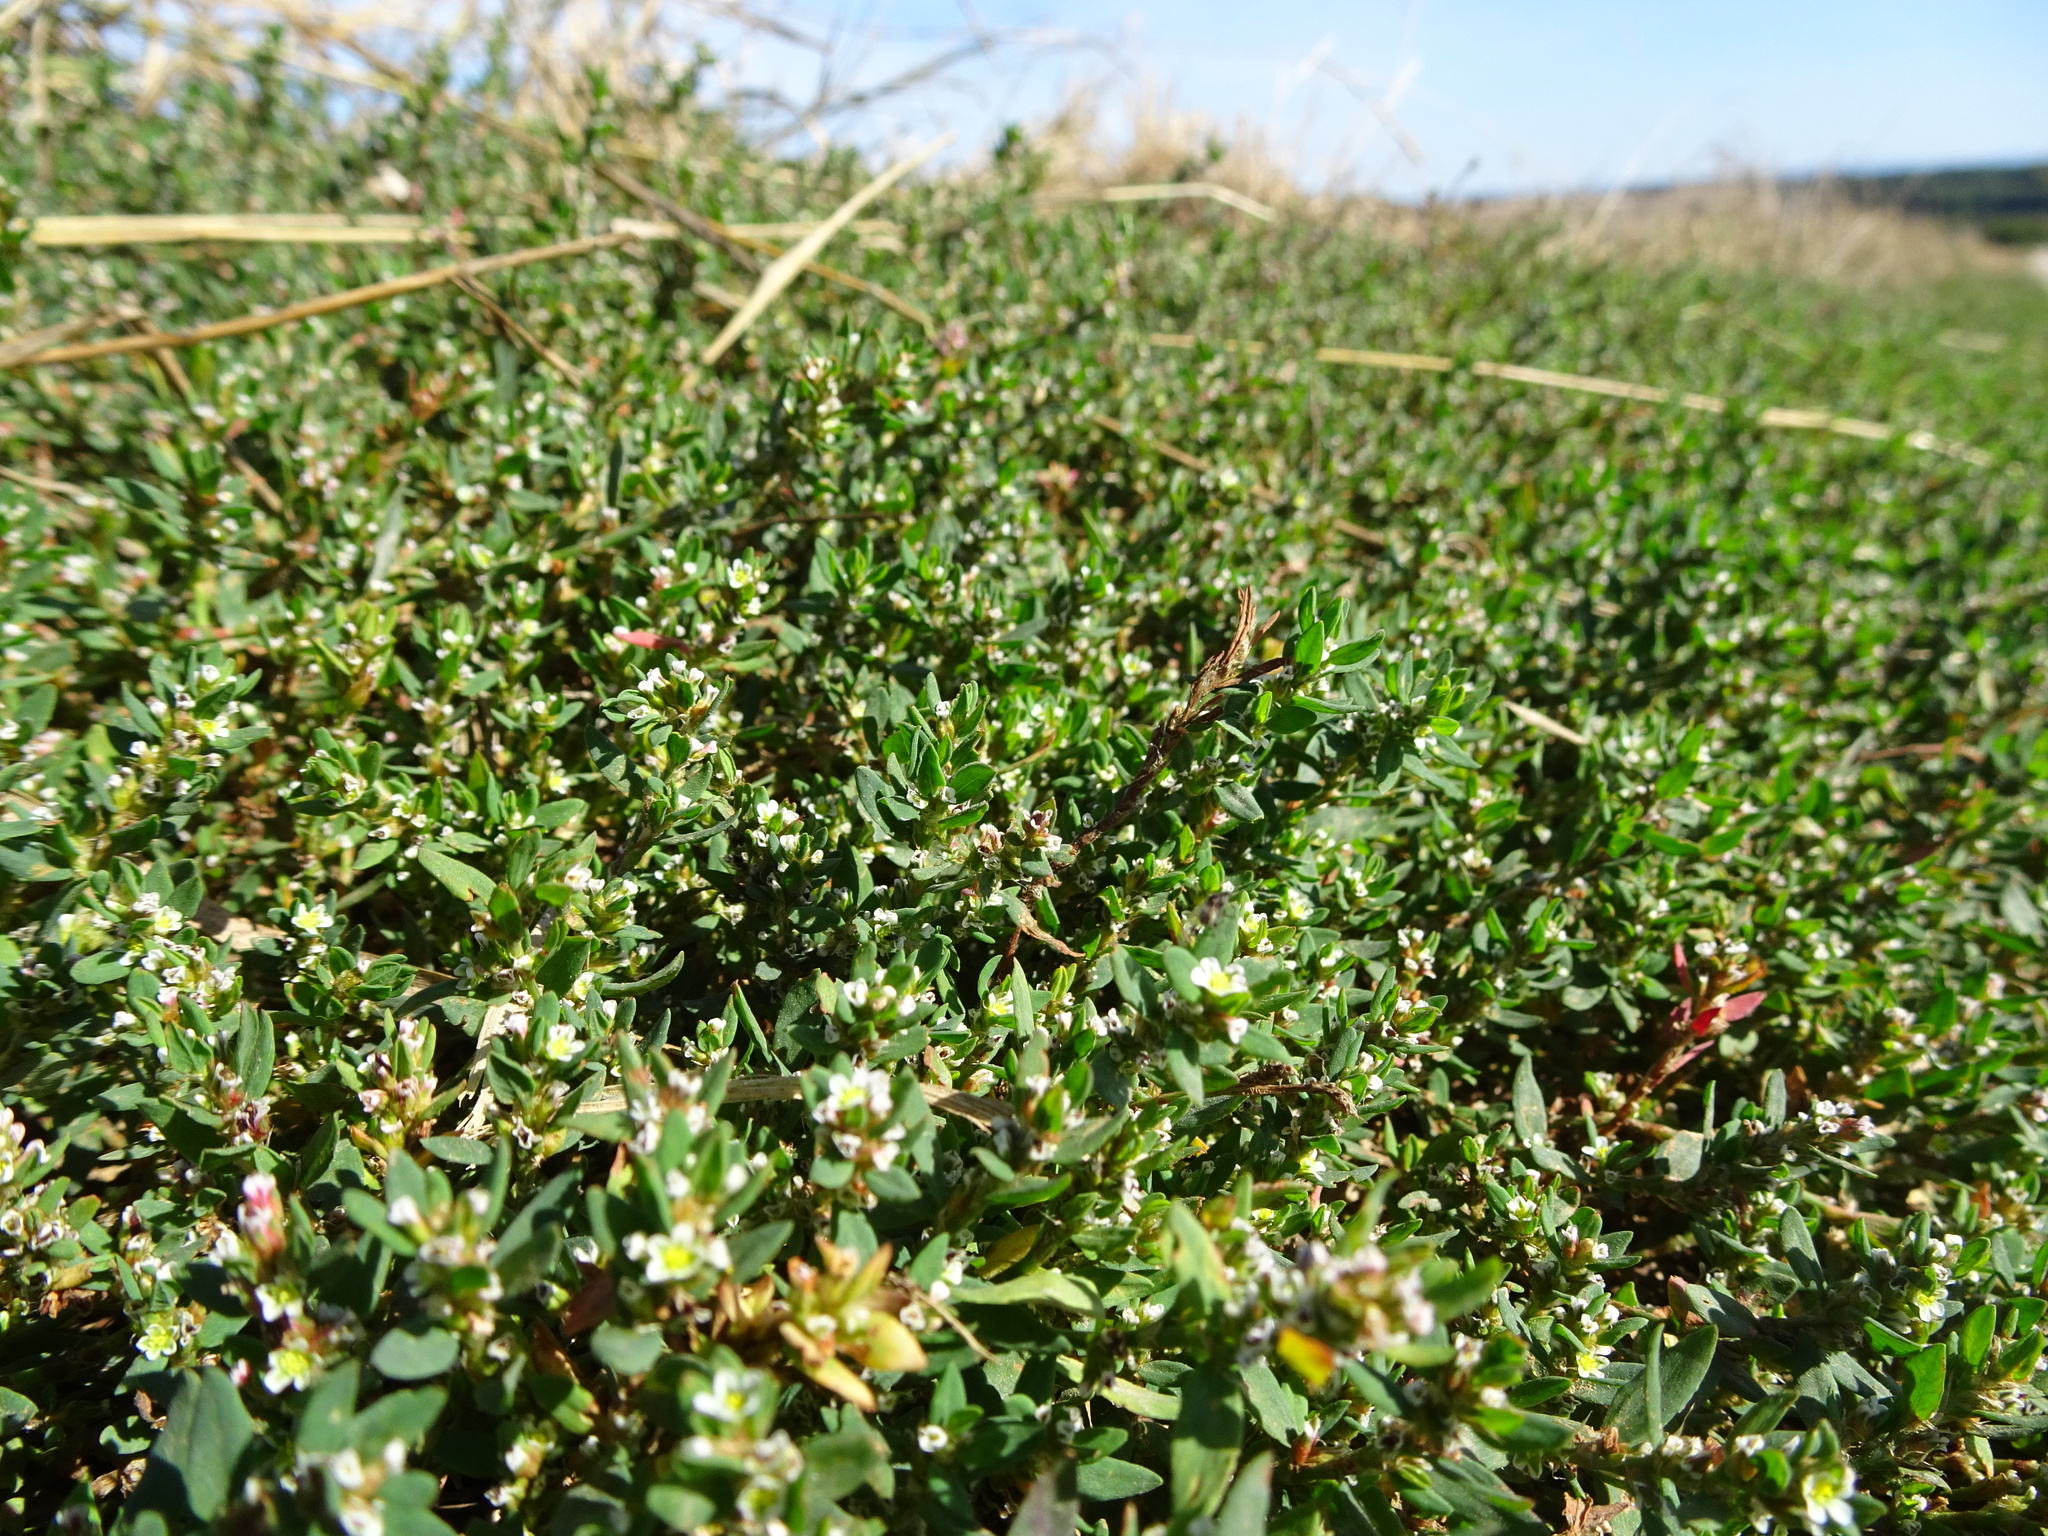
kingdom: Plantae
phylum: Tracheophyta
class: Magnoliopsida
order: Caryophyllales
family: Polygonaceae
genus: Polygonum
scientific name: Polygonum arenastrum
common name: Equal-leaved knotgrass
